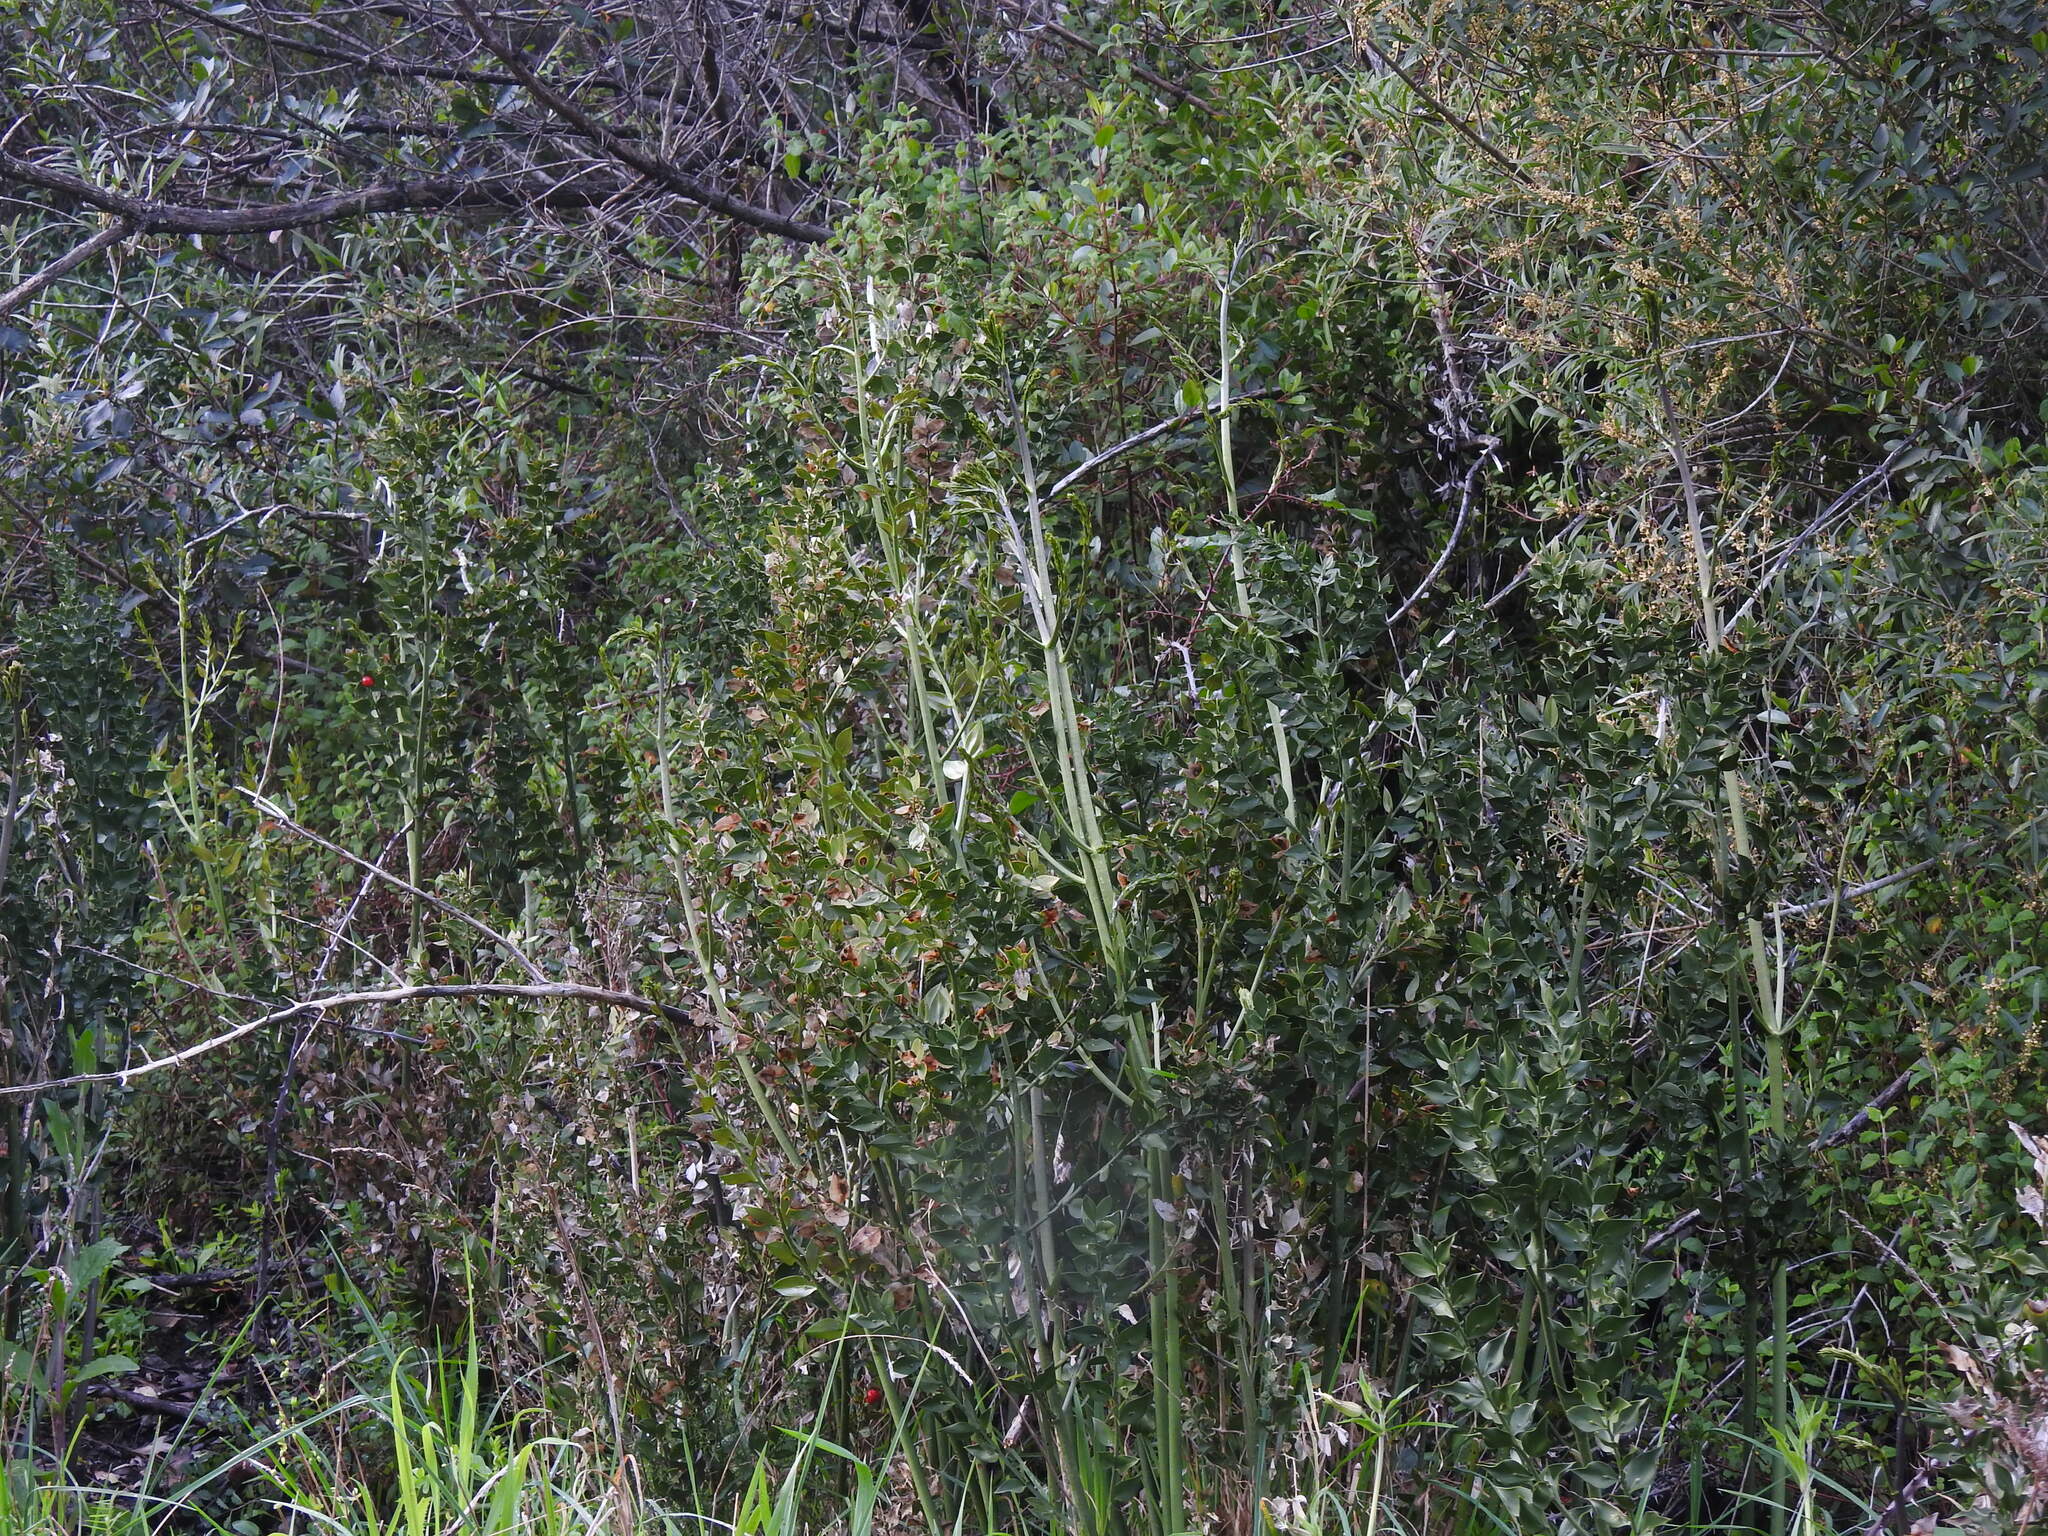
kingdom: Plantae
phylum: Tracheophyta
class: Liliopsida
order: Asparagales
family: Asparagaceae
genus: Ruscus
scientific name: Ruscus aculeatus
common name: Butcher's-broom
